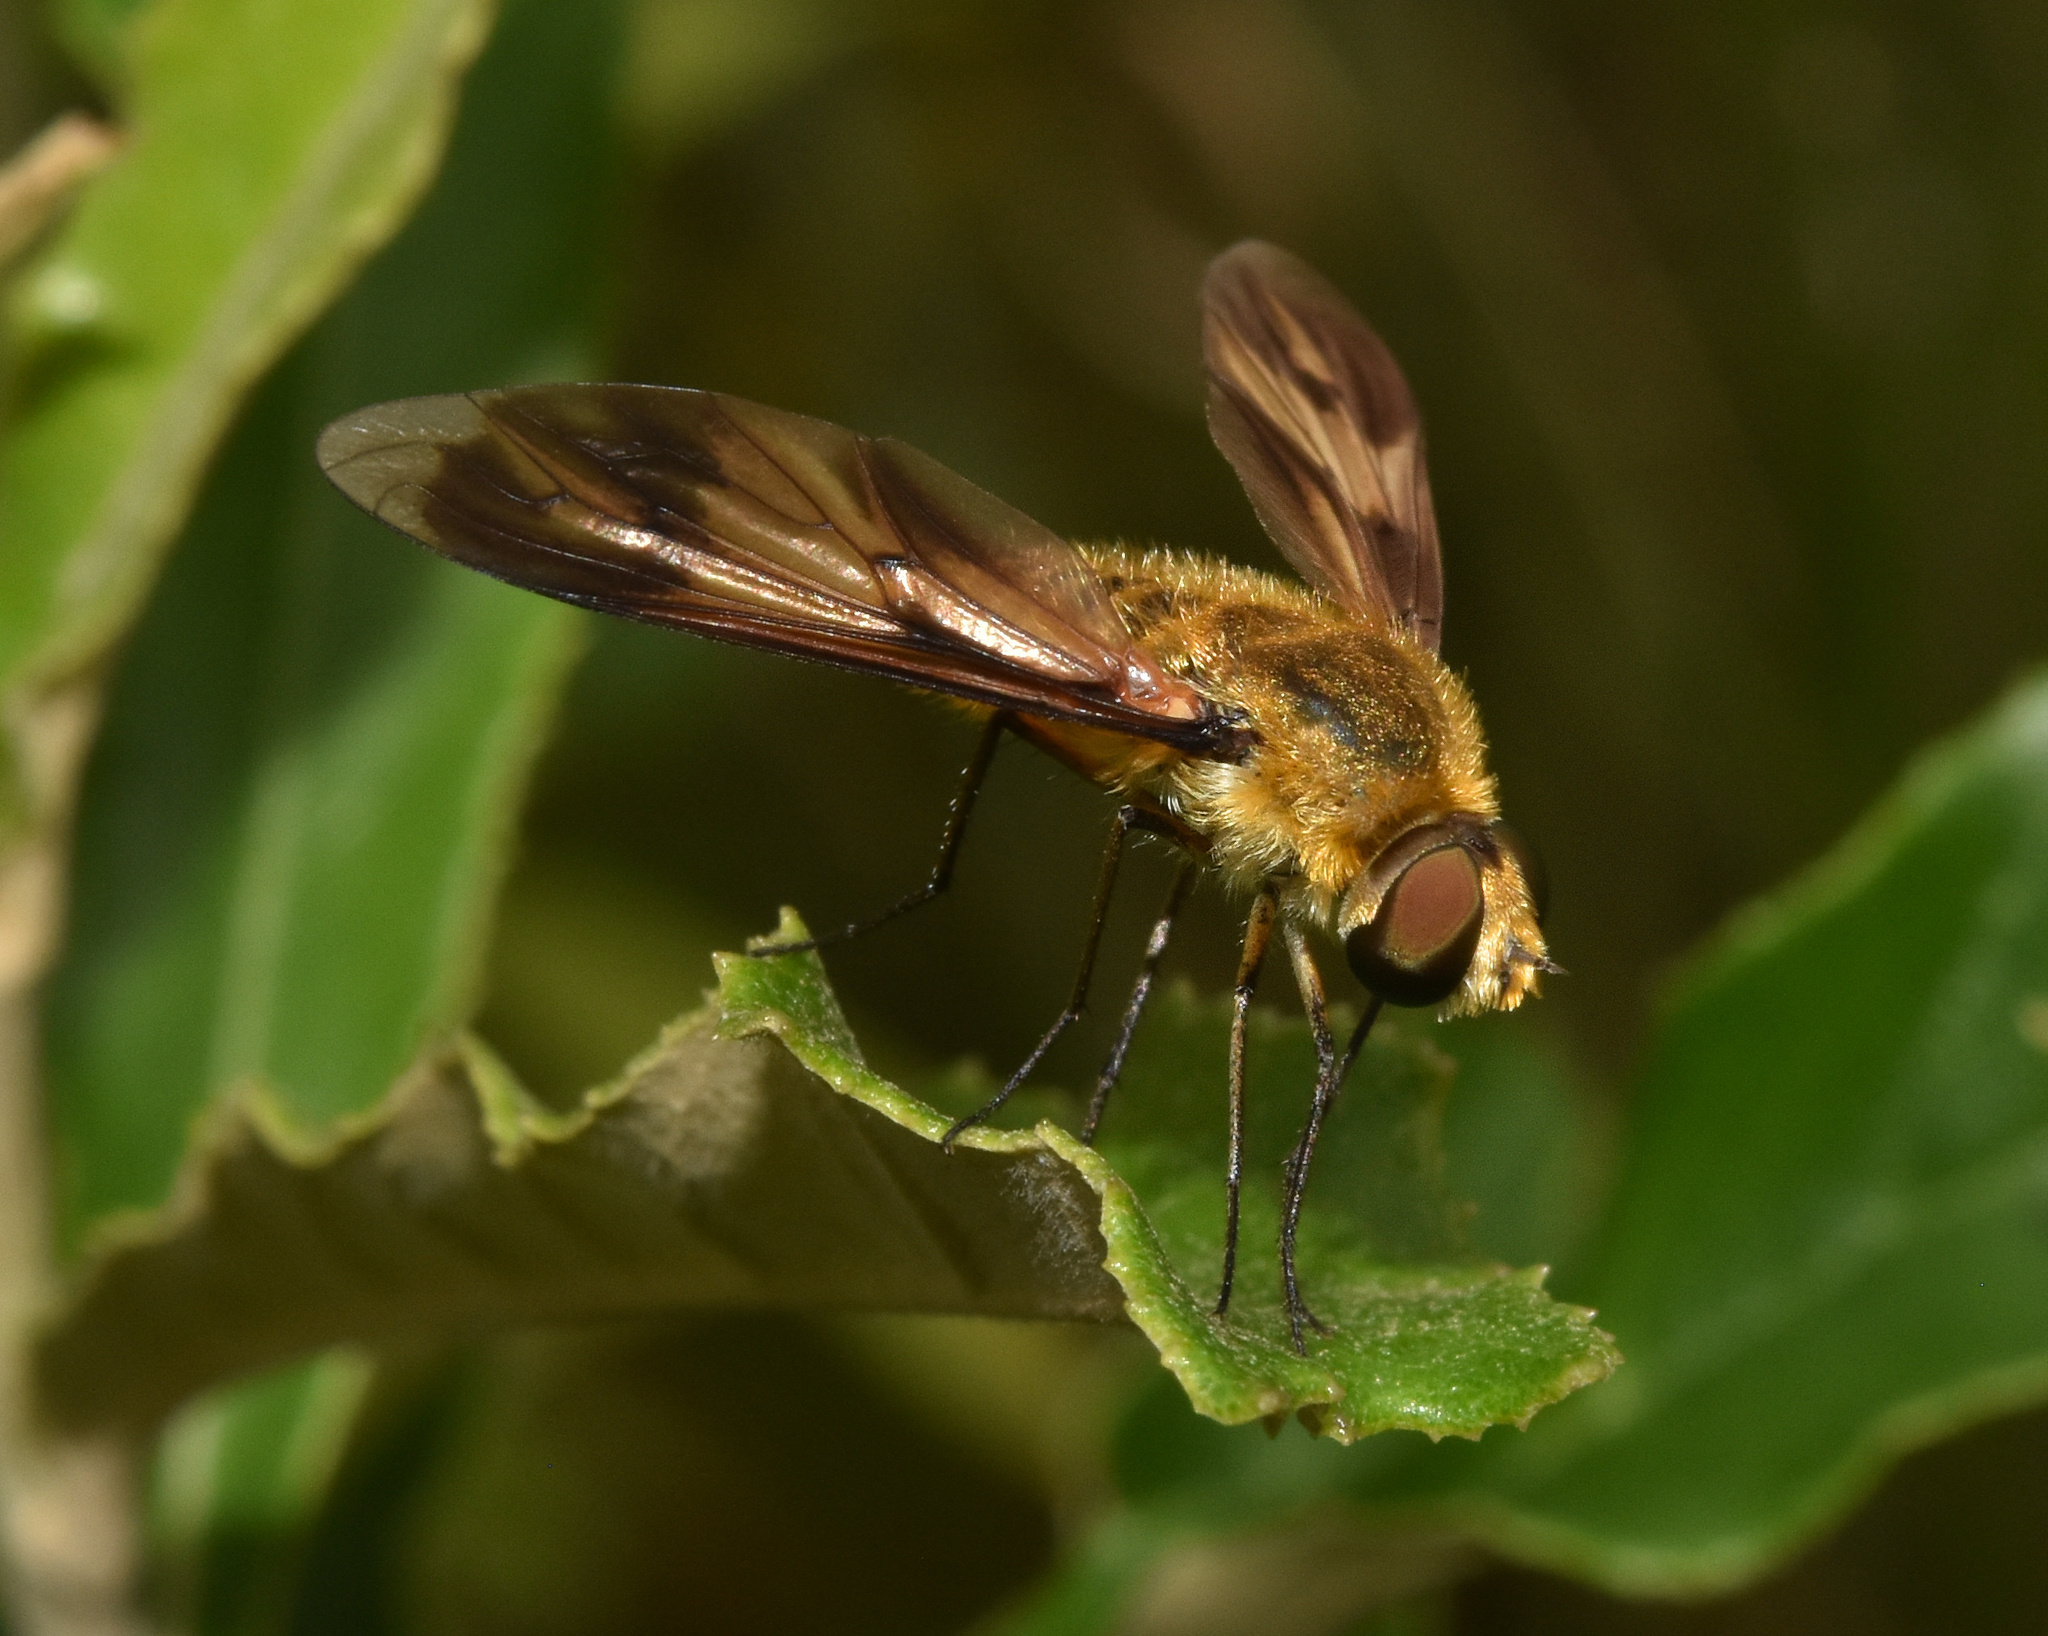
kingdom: Animalia
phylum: Arthropoda
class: Insecta
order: Diptera
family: Bombyliidae
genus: Notolomatia
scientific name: Notolomatia pictipennis
